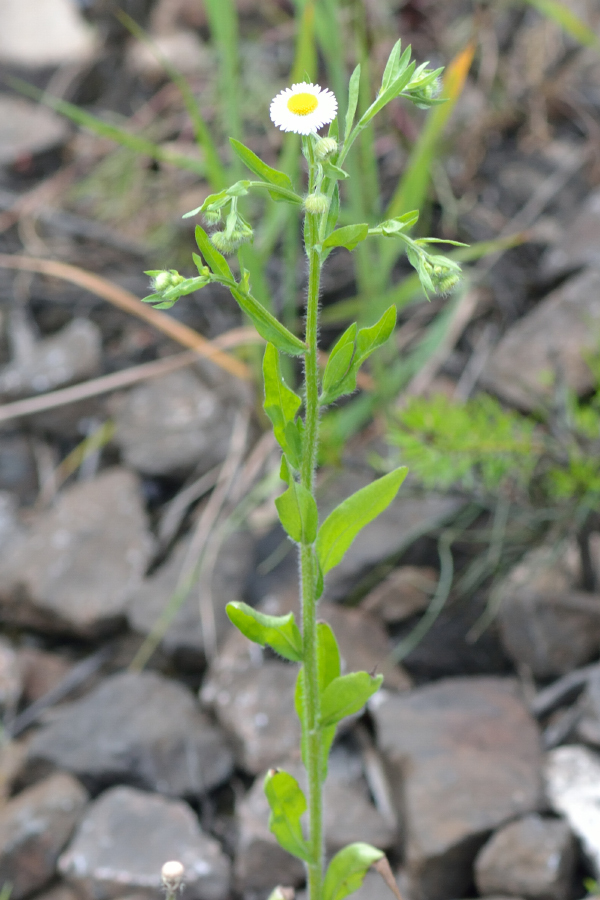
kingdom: Plantae
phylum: Tracheophyta
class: Magnoliopsida
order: Asterales
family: Asteraceae
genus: Erigeron
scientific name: Erigeron annuus
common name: Tall fleabane
